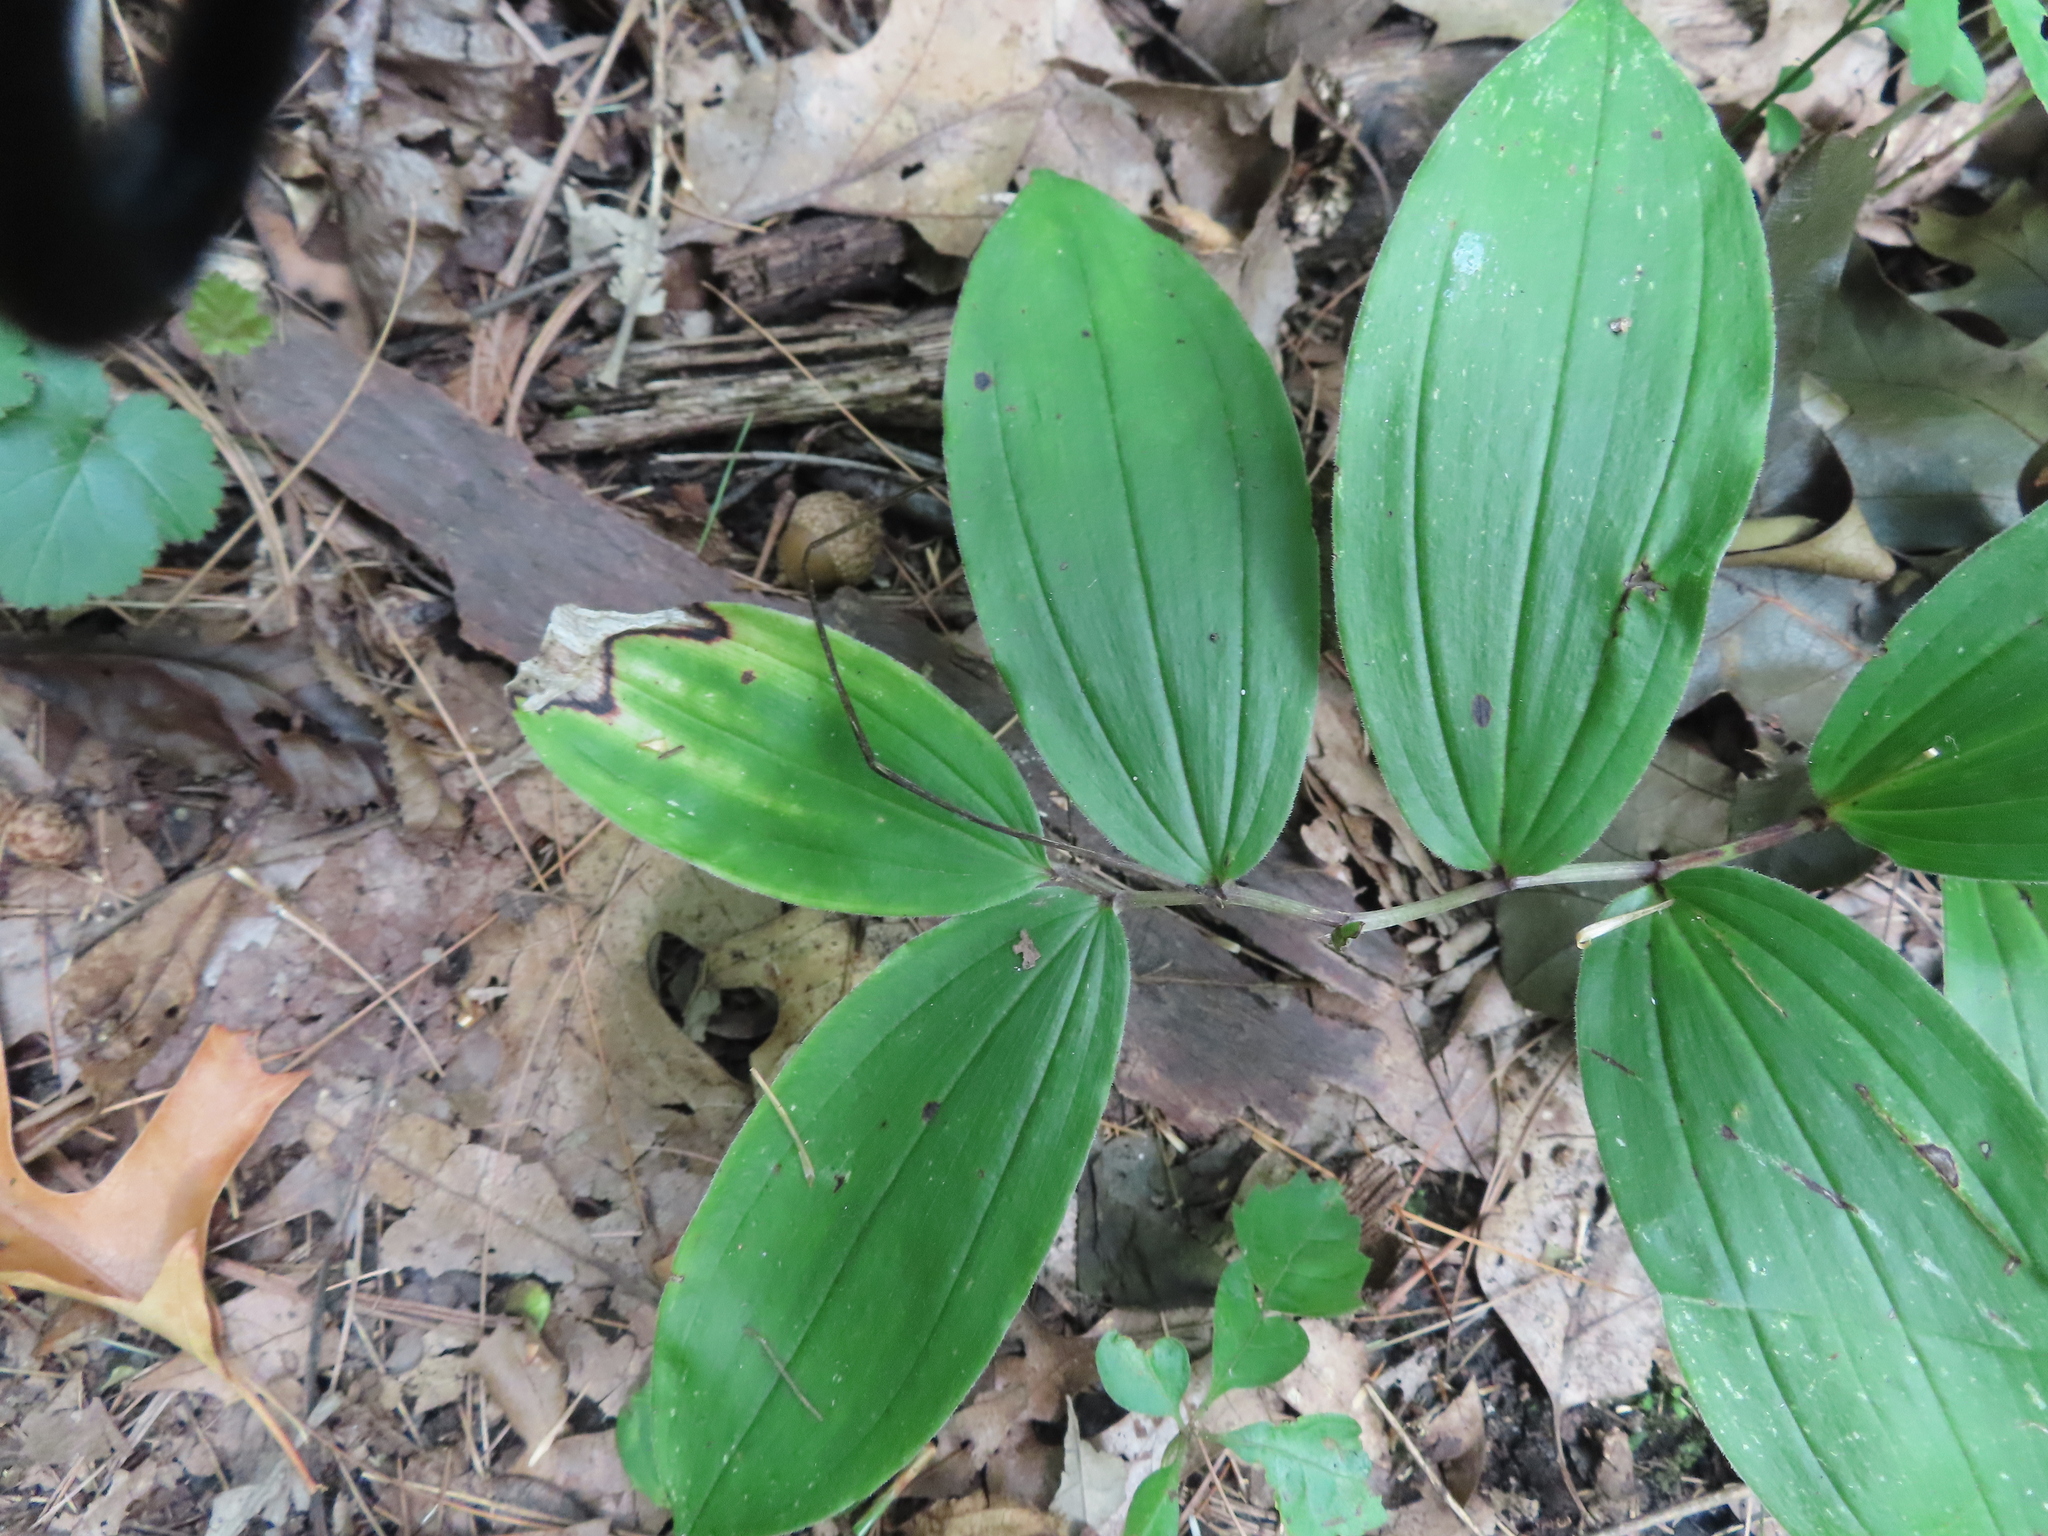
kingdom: Plantae
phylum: Tracheophyta
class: Liliopsida
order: Asparagales
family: Asparagaceae
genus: Maianthemum
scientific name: Maianthemum racemosum
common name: False spikenard
